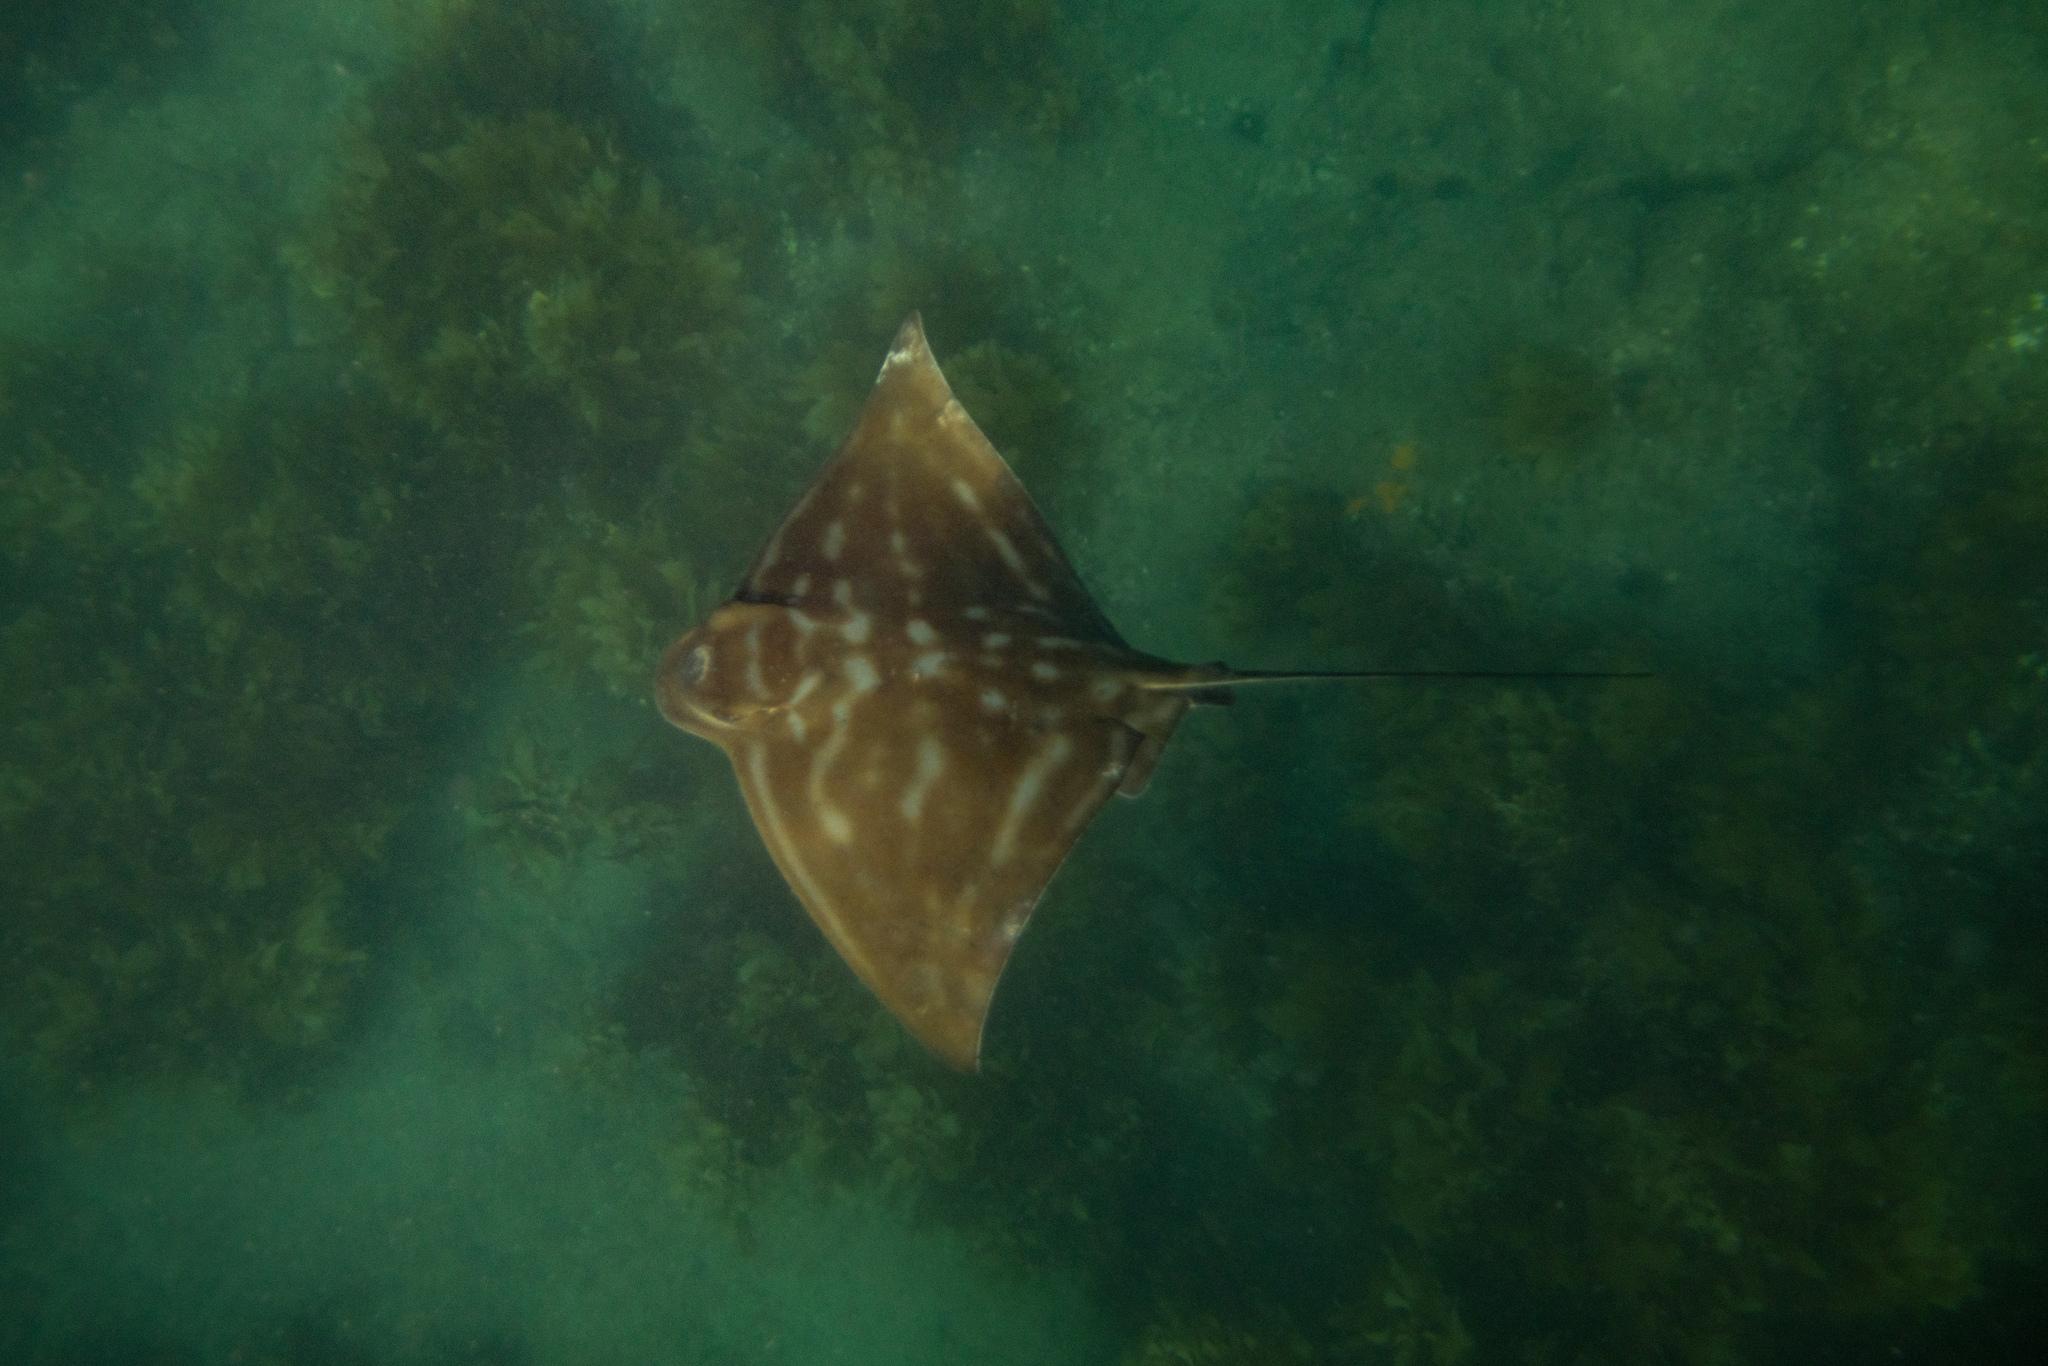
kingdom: Animalia
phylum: Chordata
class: Elasmobranchii
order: Myliobatiformes
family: Myliobatidae
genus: Myliobatis
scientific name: Myliobatis tenuicaudatus
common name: Eagle ray
